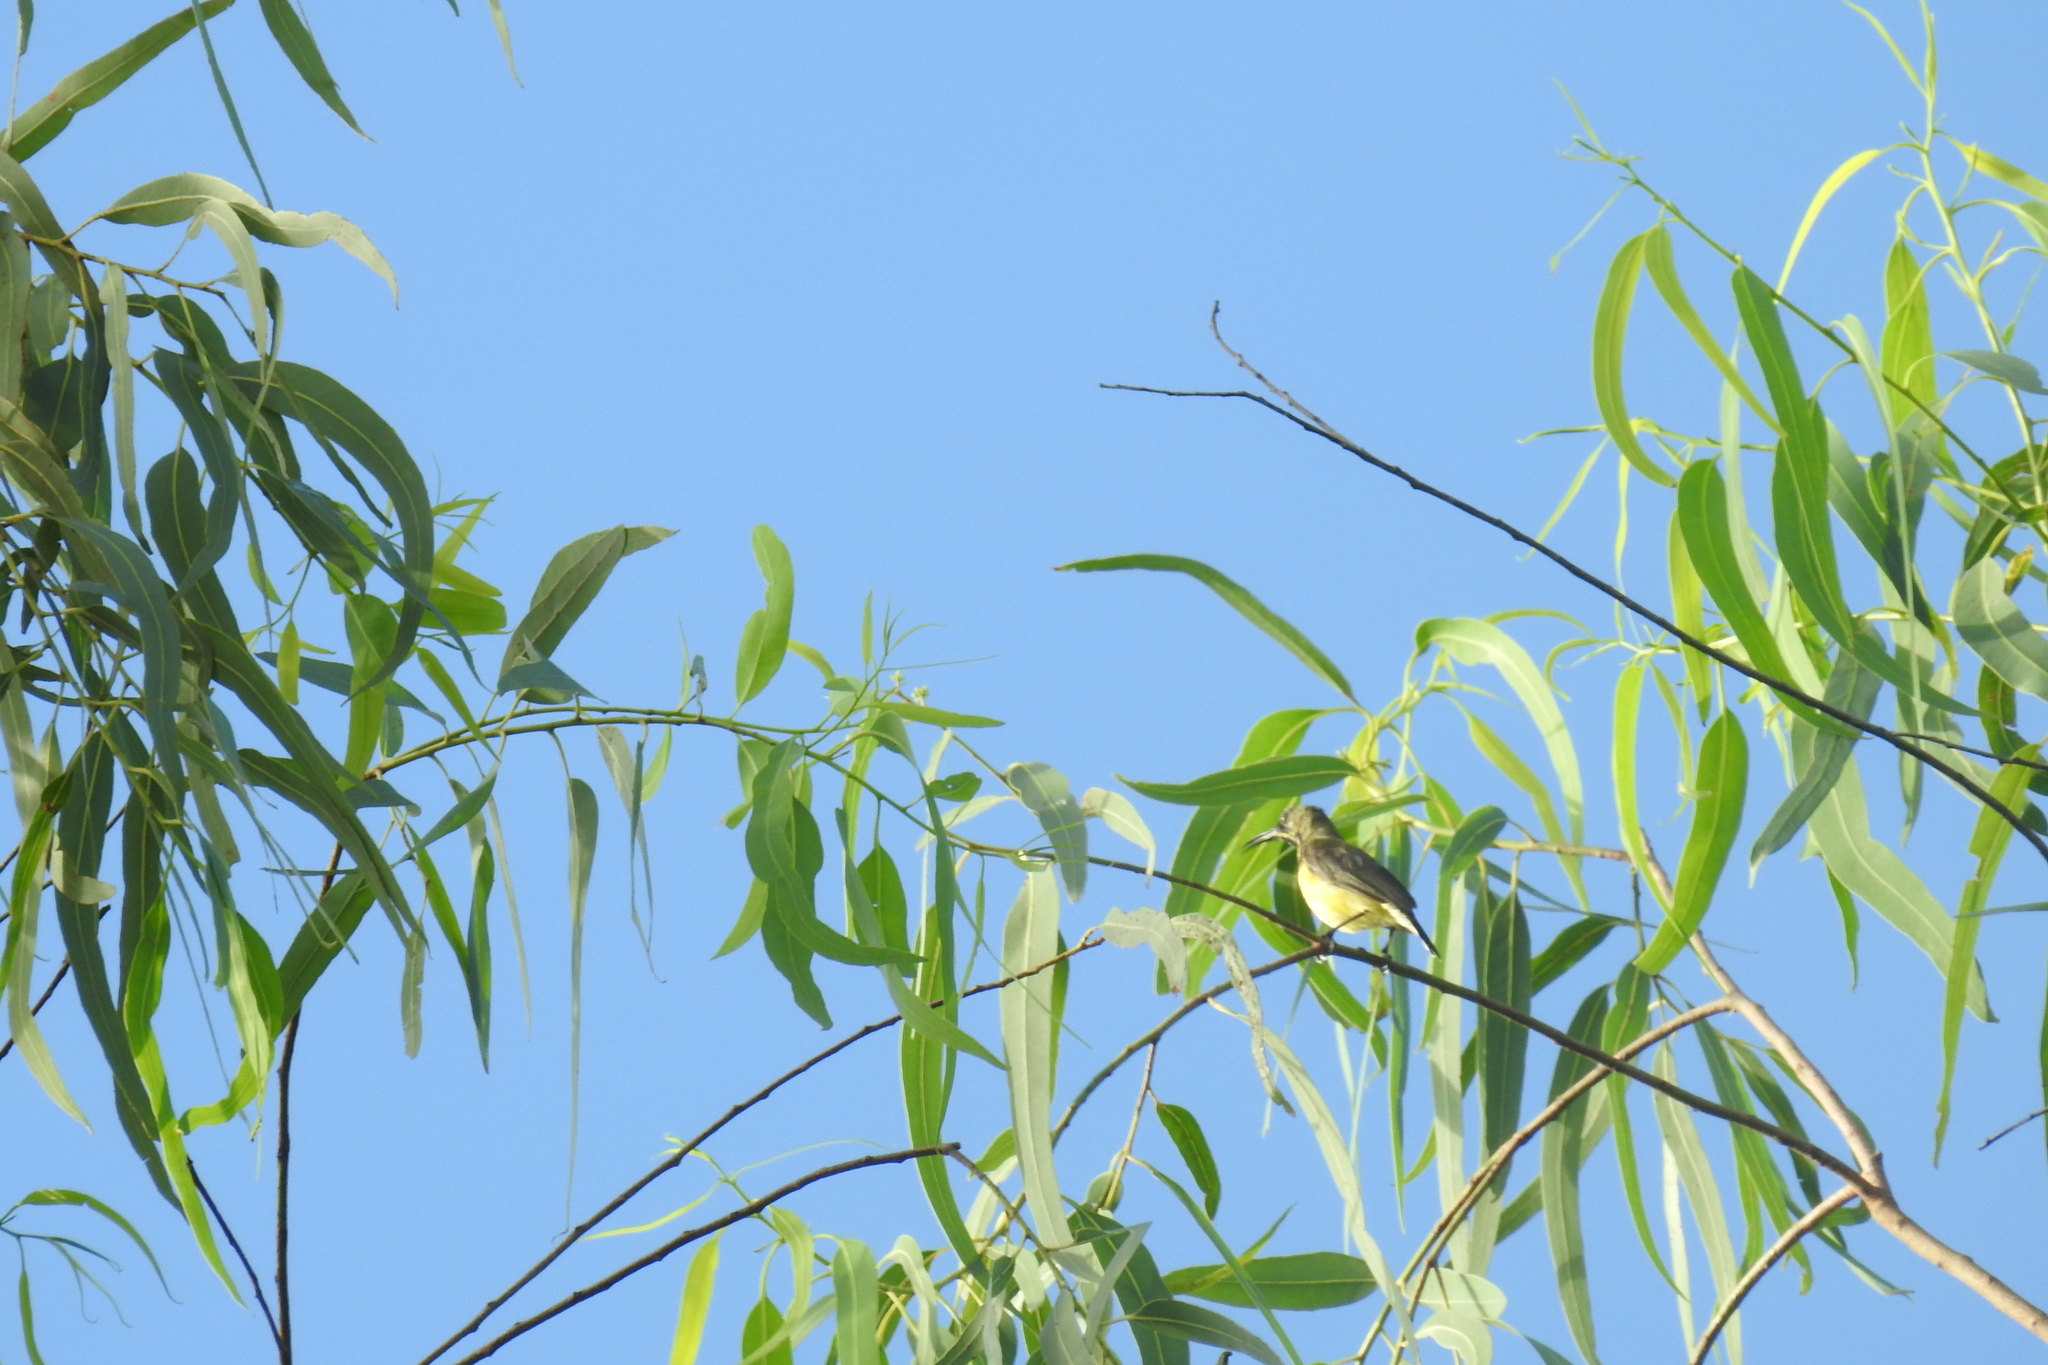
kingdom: Animalia
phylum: Chordata
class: Aves
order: Passeriformes
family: Nectariniidae
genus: Cinnyris
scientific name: Cinnyris jugularis
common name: Olive-backed sunbird
